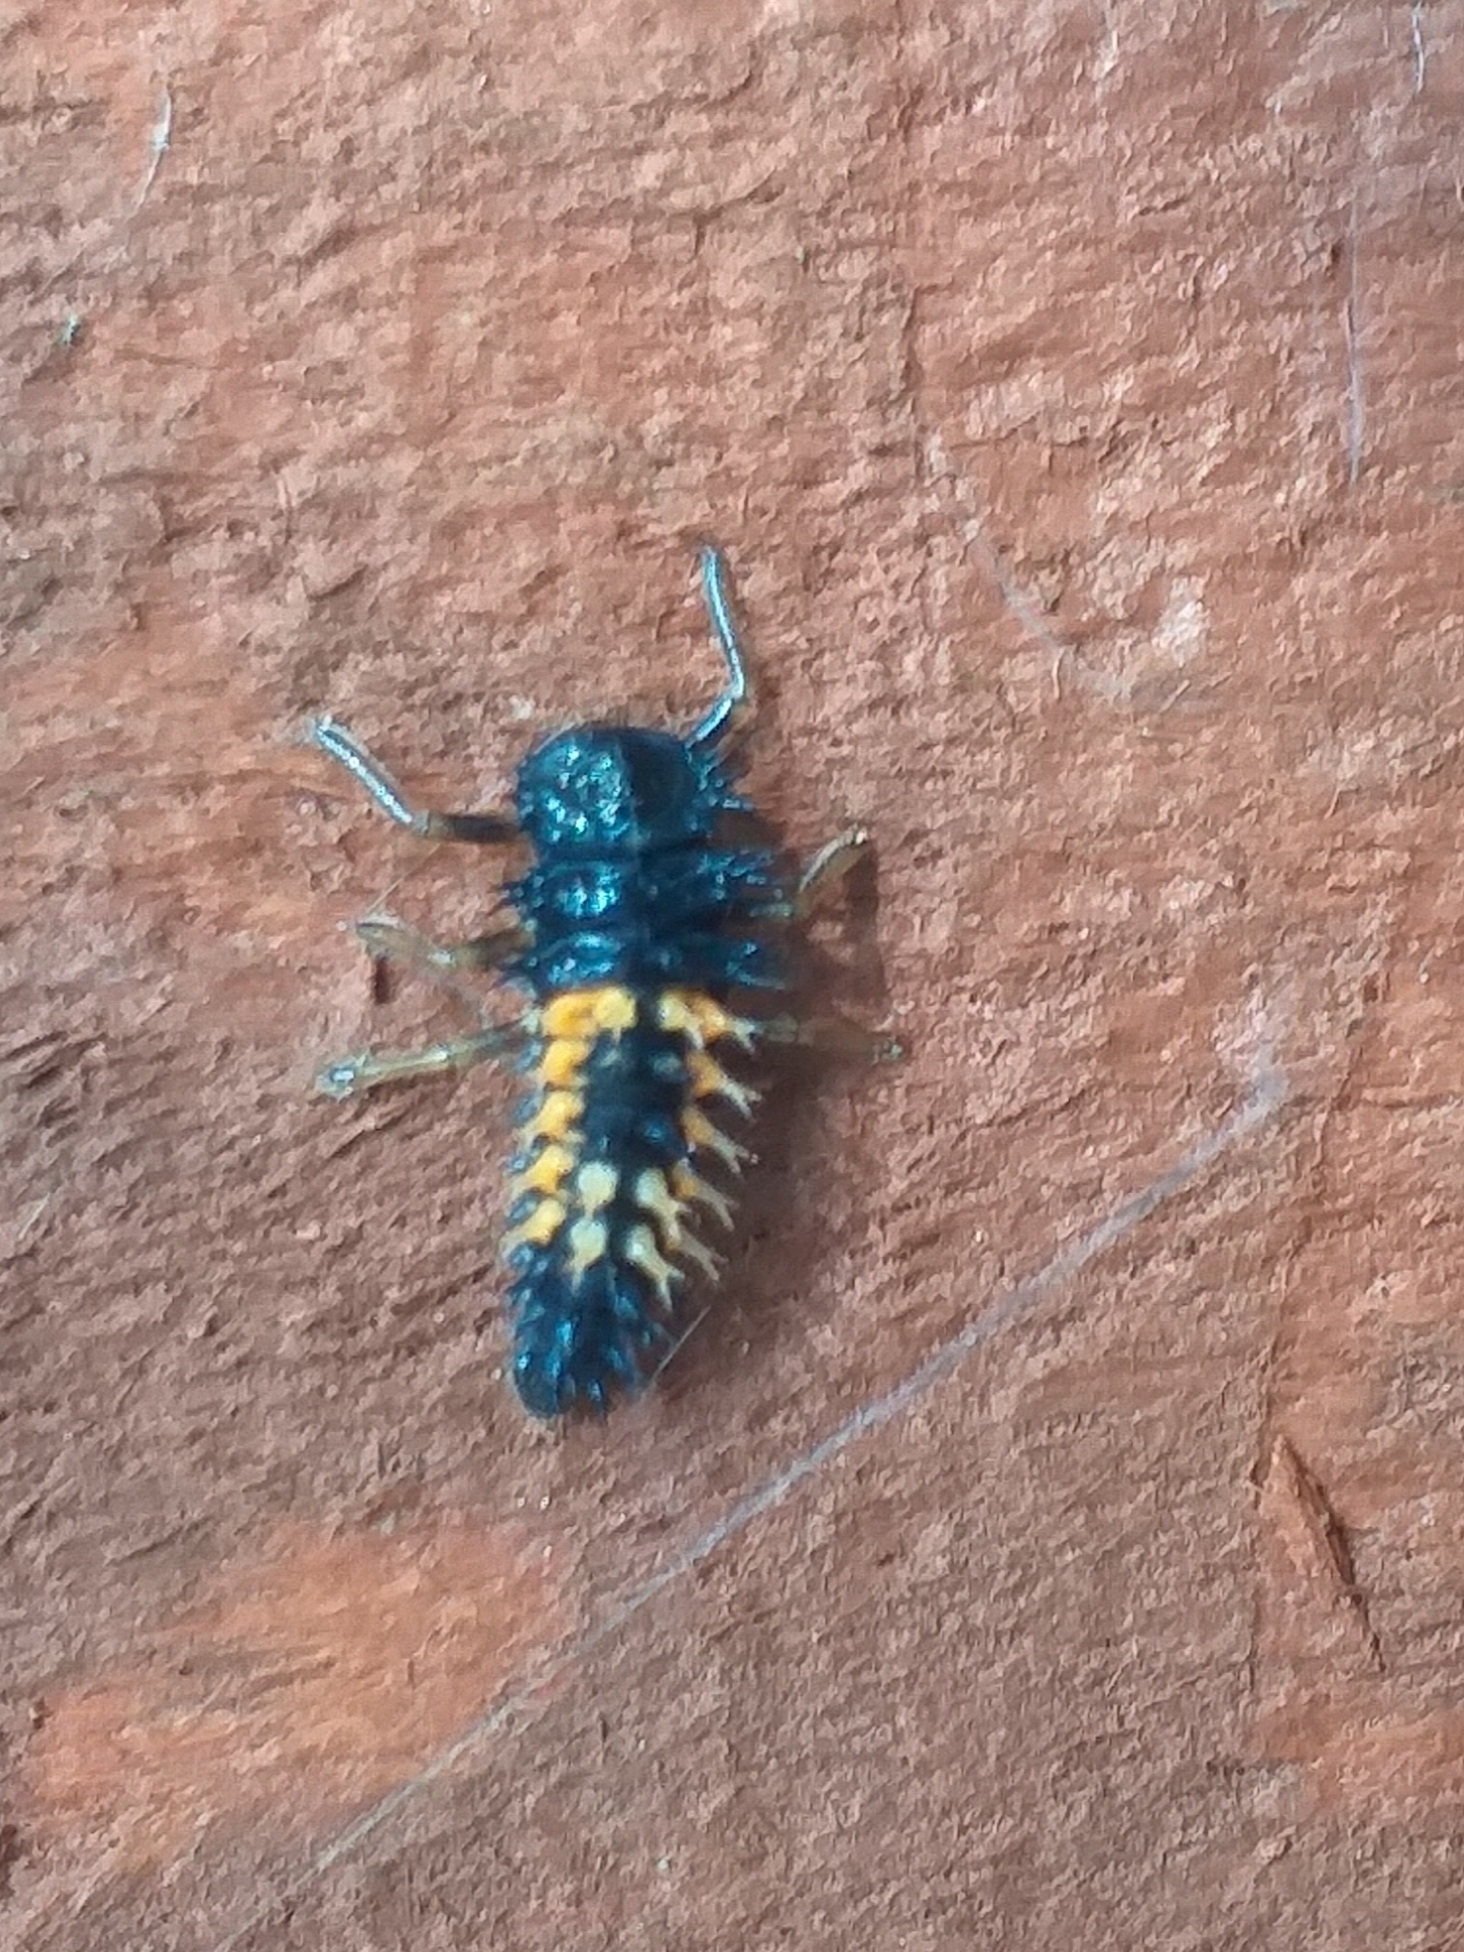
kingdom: Animalia
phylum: Arthropoda
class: Insecta
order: Coleoptera
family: Coccinellidae
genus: Harmonia
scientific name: Harmonia axyridis
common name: Harlequin ladybird
